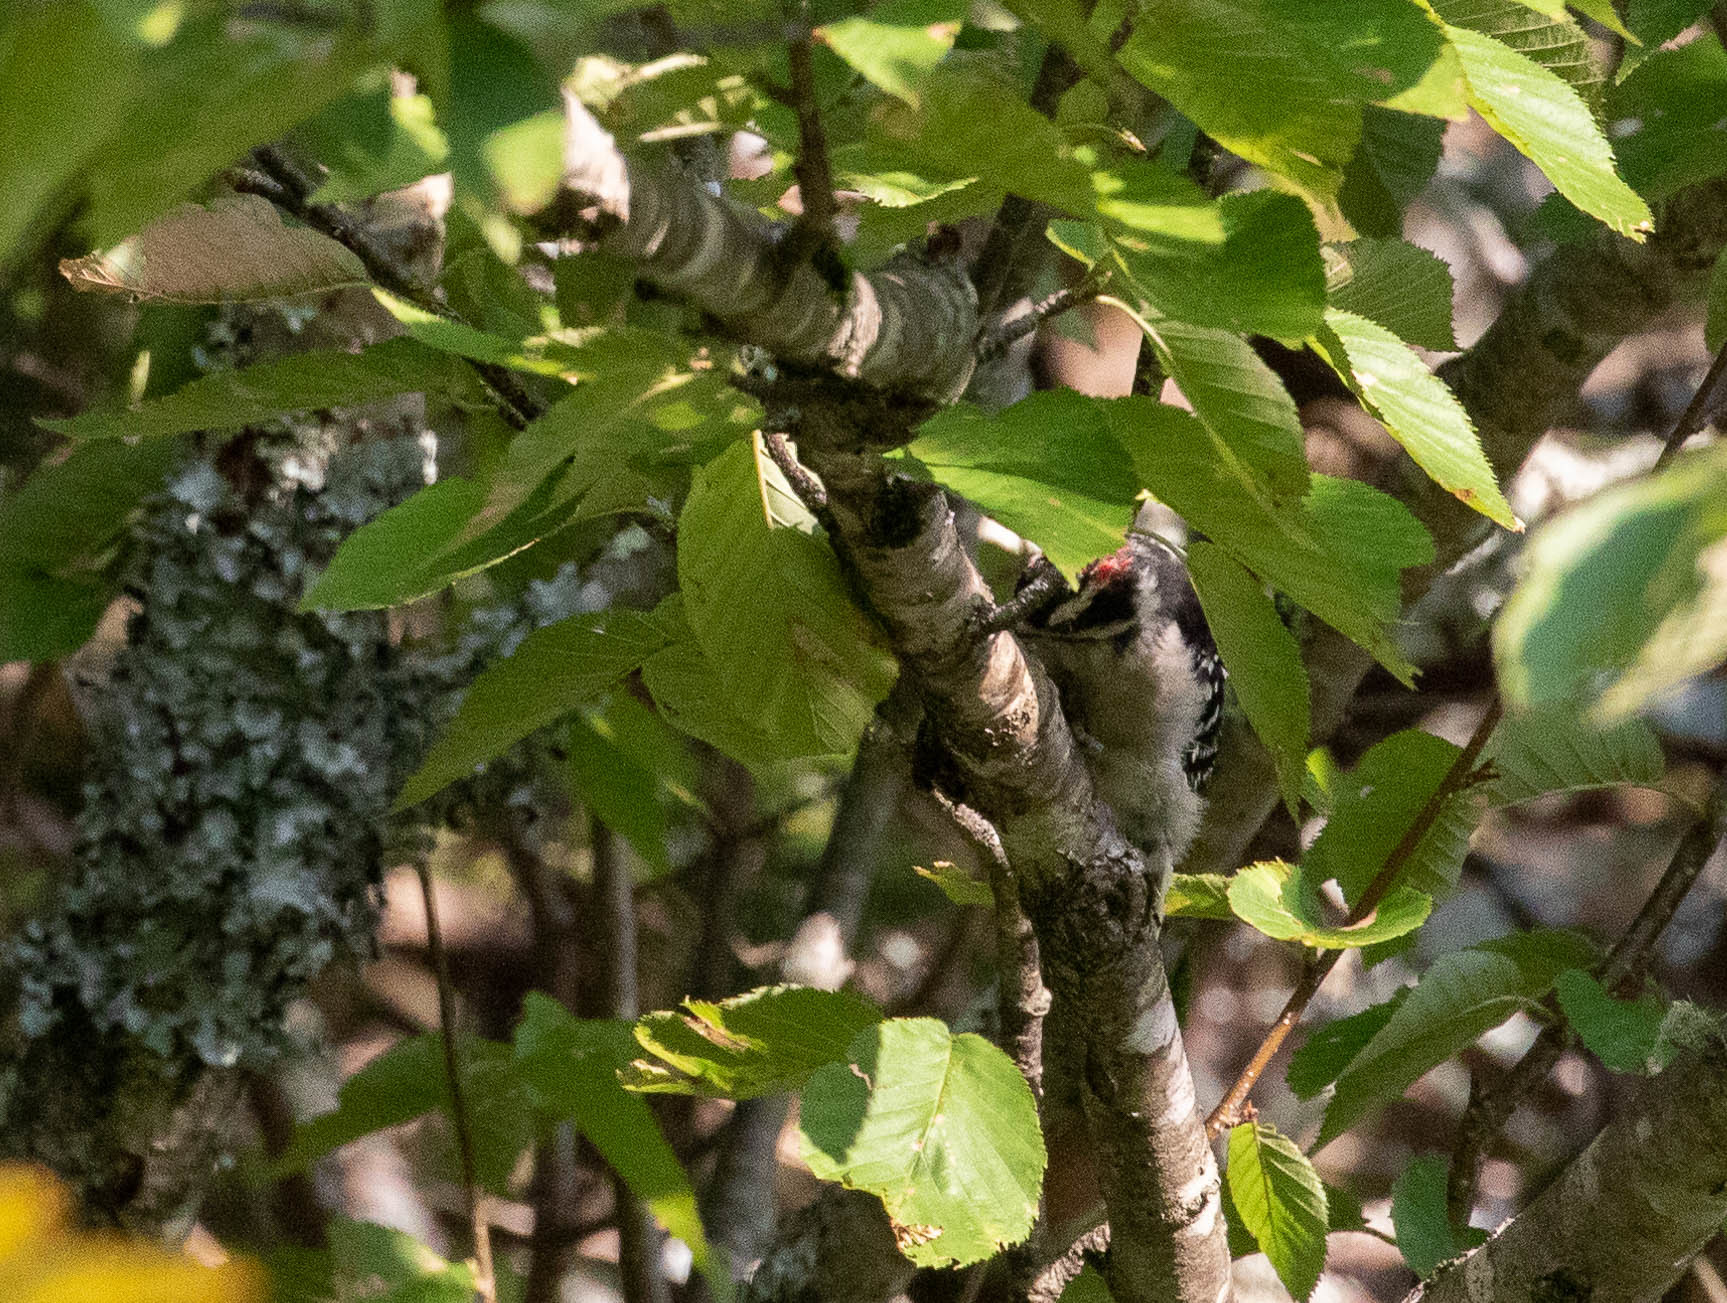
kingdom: Animalia
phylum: Chordata
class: Aves
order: Piciformes
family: Picidae
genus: Dryobates
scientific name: Dryobates pubescens
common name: Downy woodpecker
